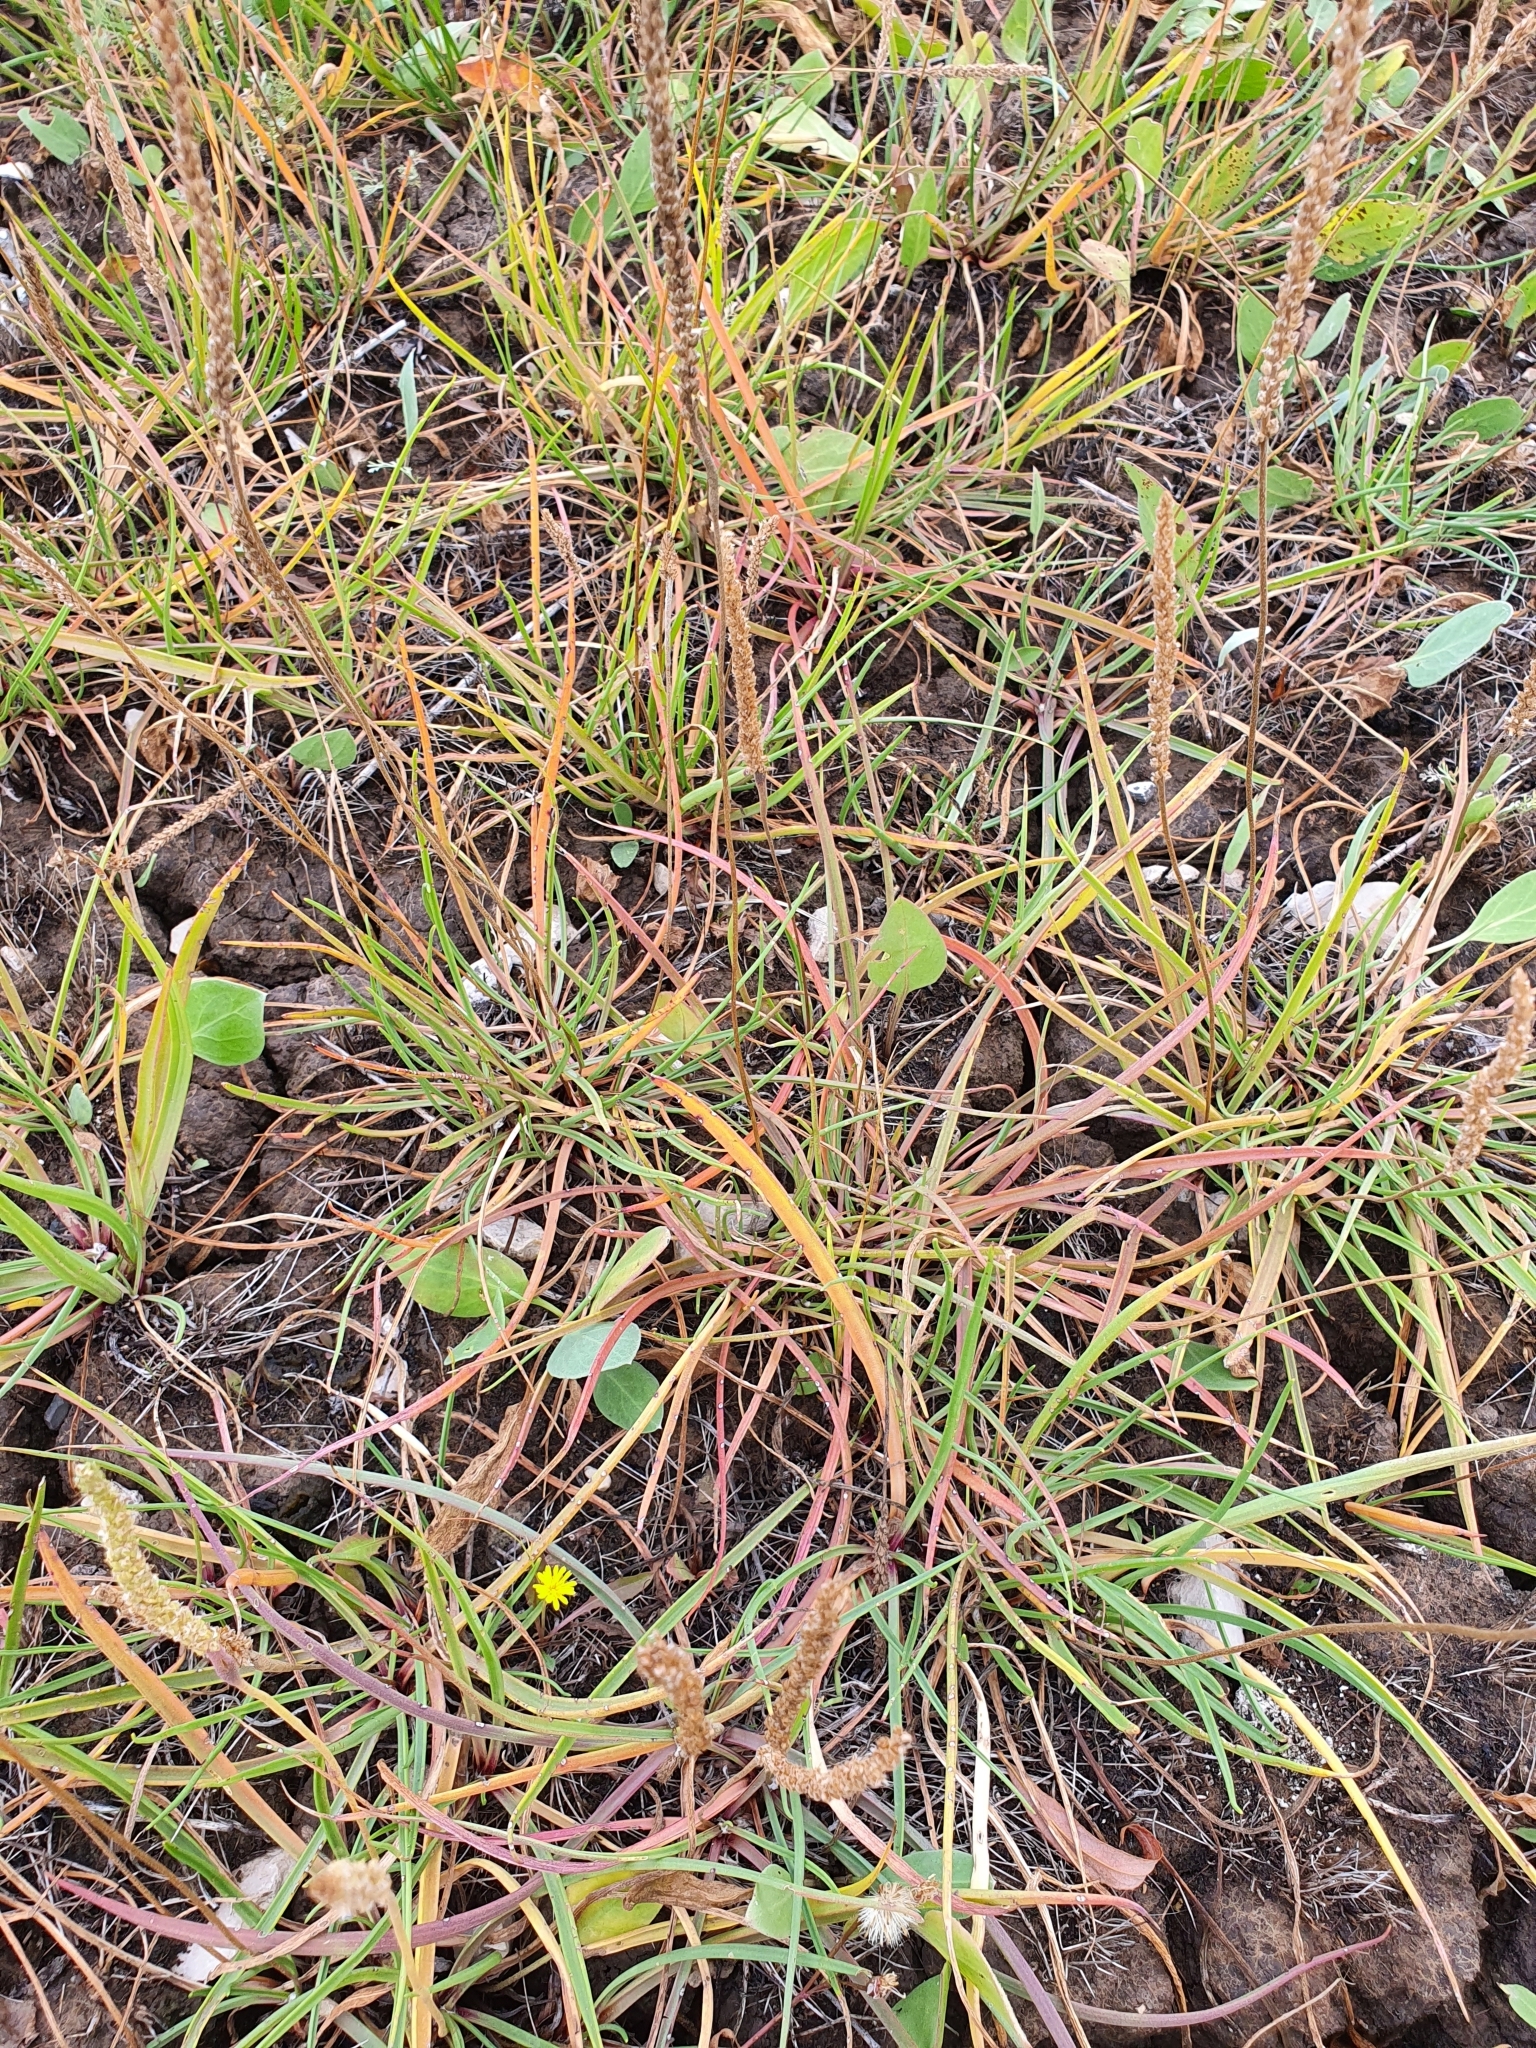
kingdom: Plantae
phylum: Tracheophyta
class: Magnoliopsida
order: Lamiales
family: Plantaginaceae
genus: Plantago
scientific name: Plantago salsa
